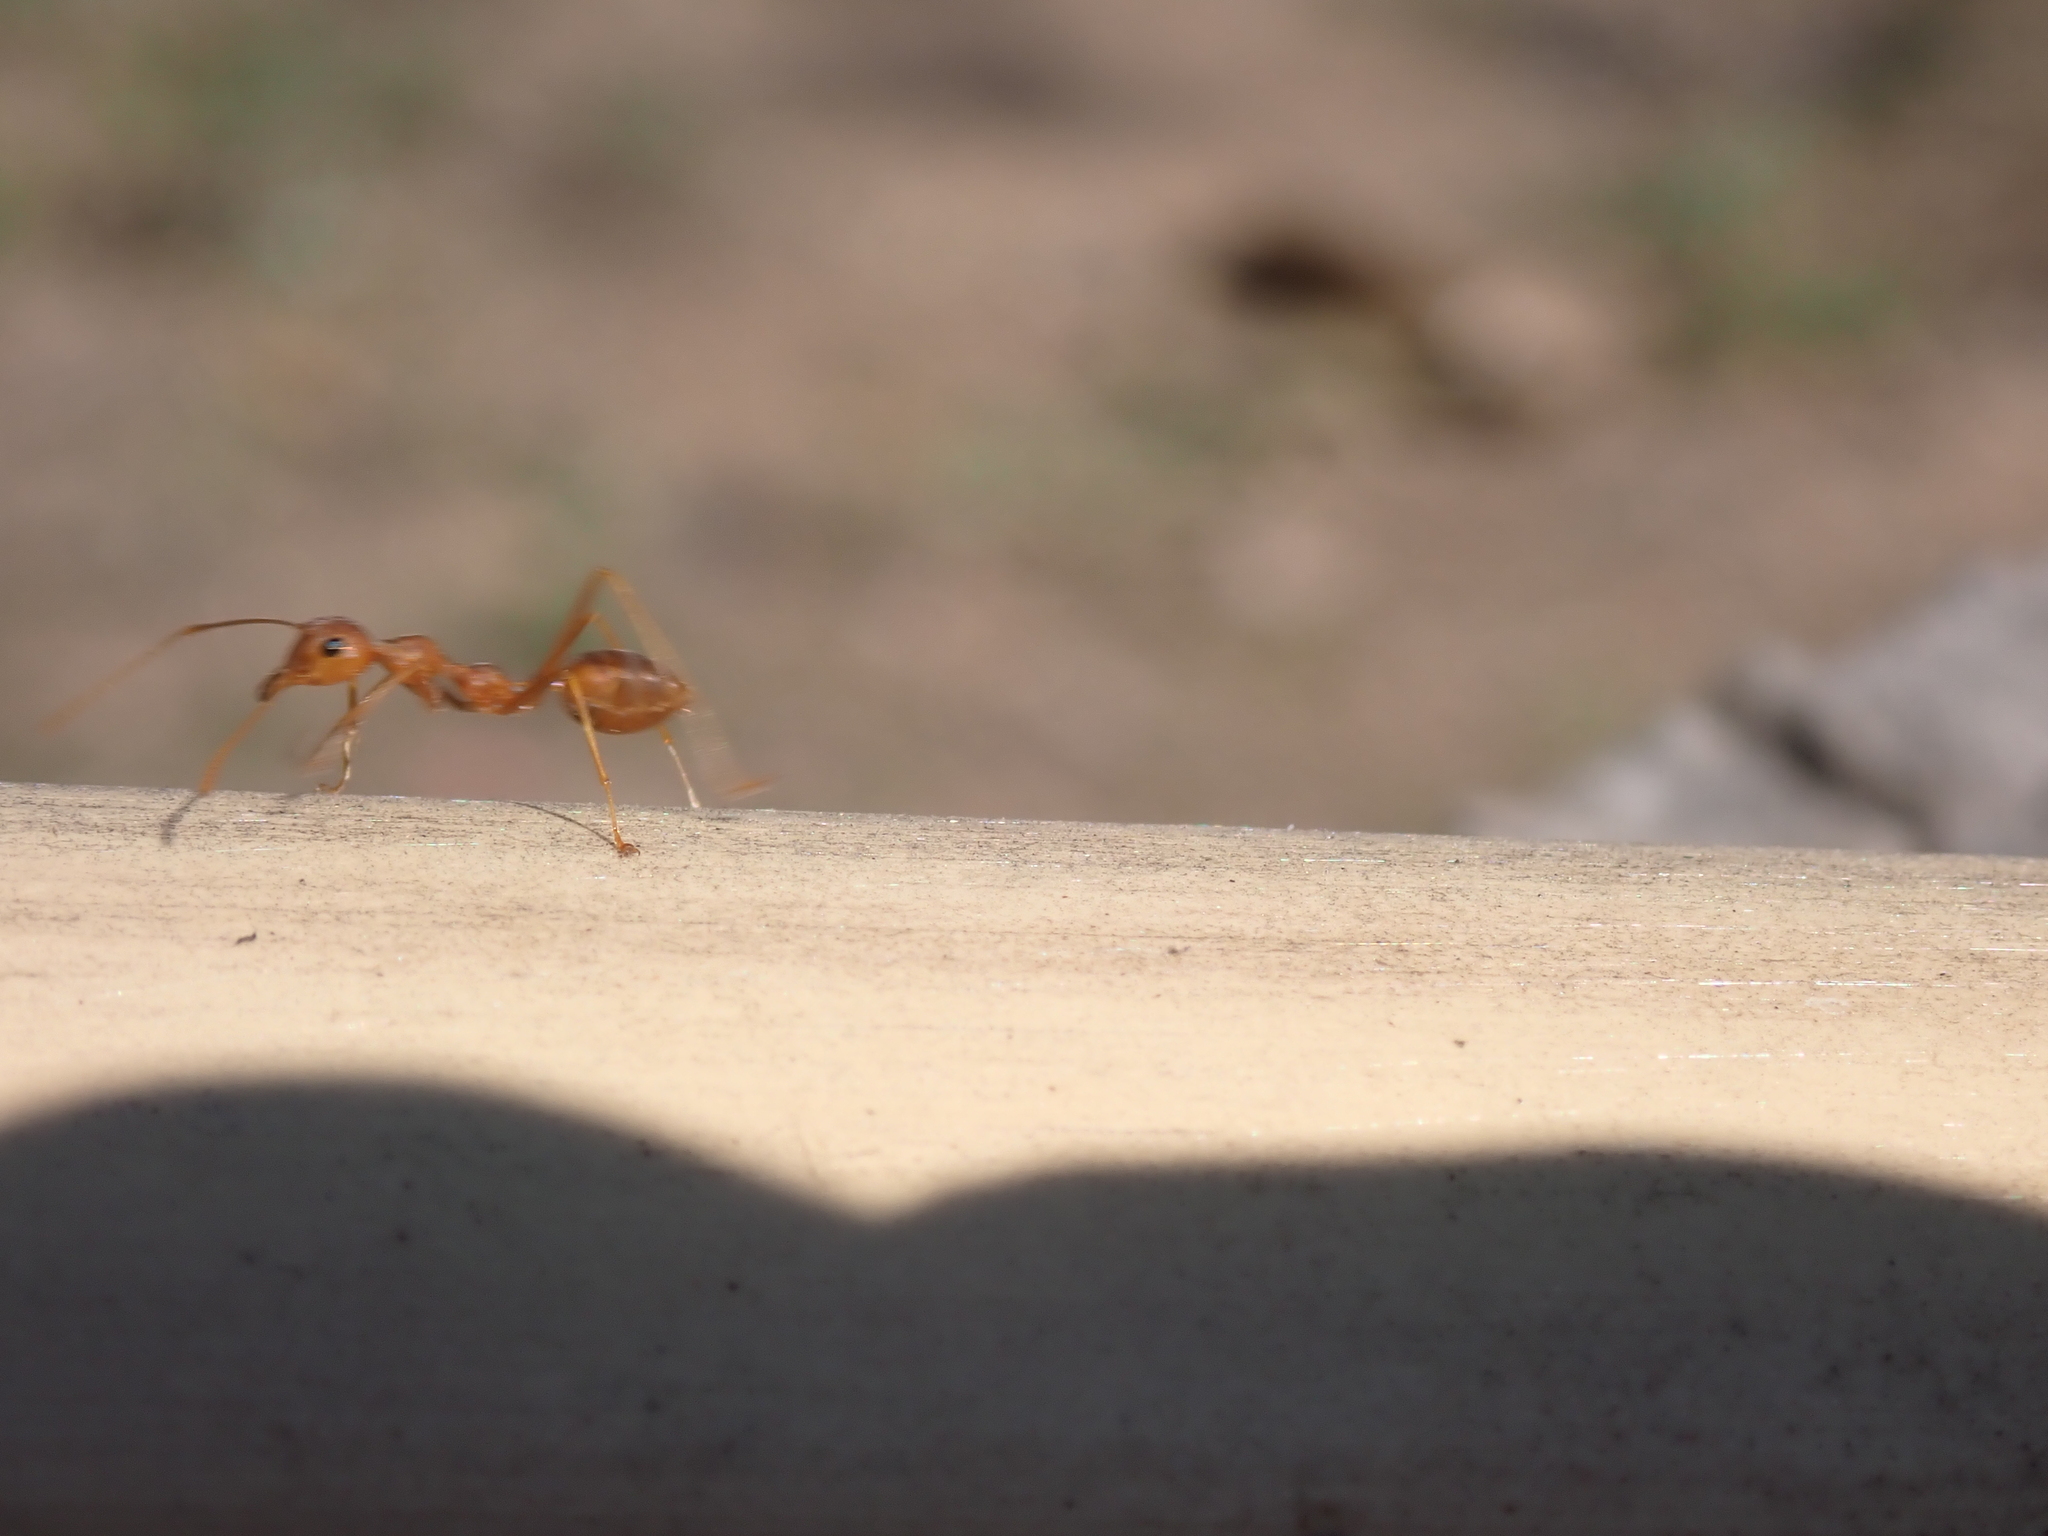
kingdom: Animalia
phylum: Arthropoda
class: Insecta
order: Hymenoptera
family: Formicidae
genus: Oecophylla
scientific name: Oecophylla smaragdina
